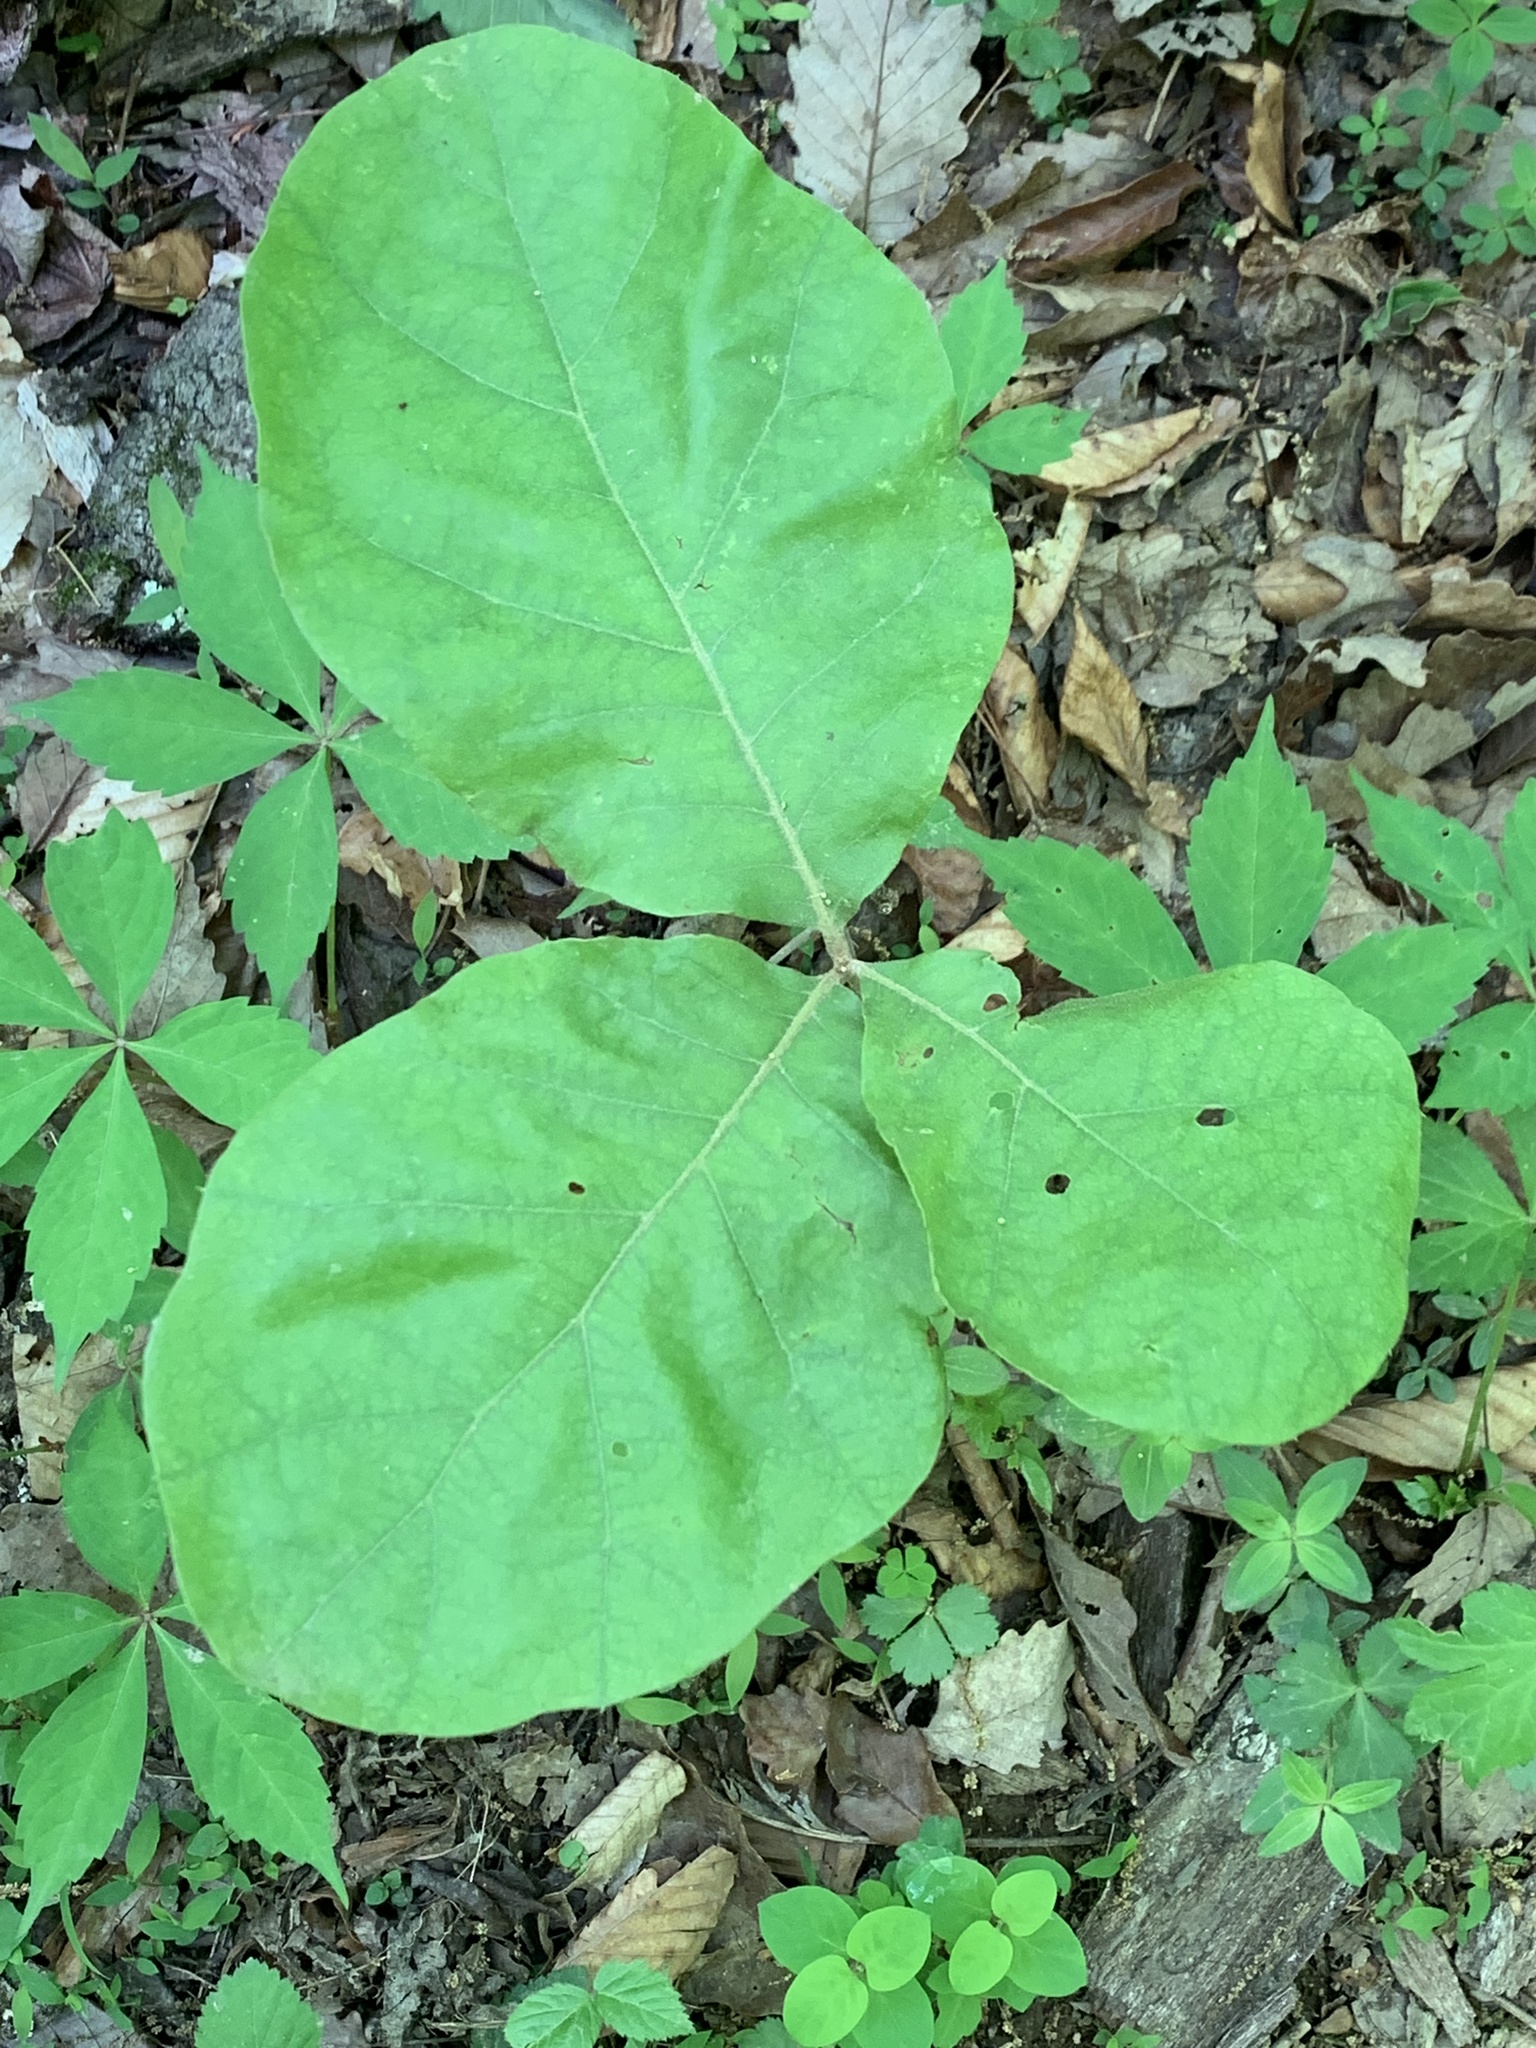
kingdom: Plantae
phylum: Tracheophyta
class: Magnoliopsida
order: Fagales
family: Fagaceae
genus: Quercus
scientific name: Quercus velutina
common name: Black oak
